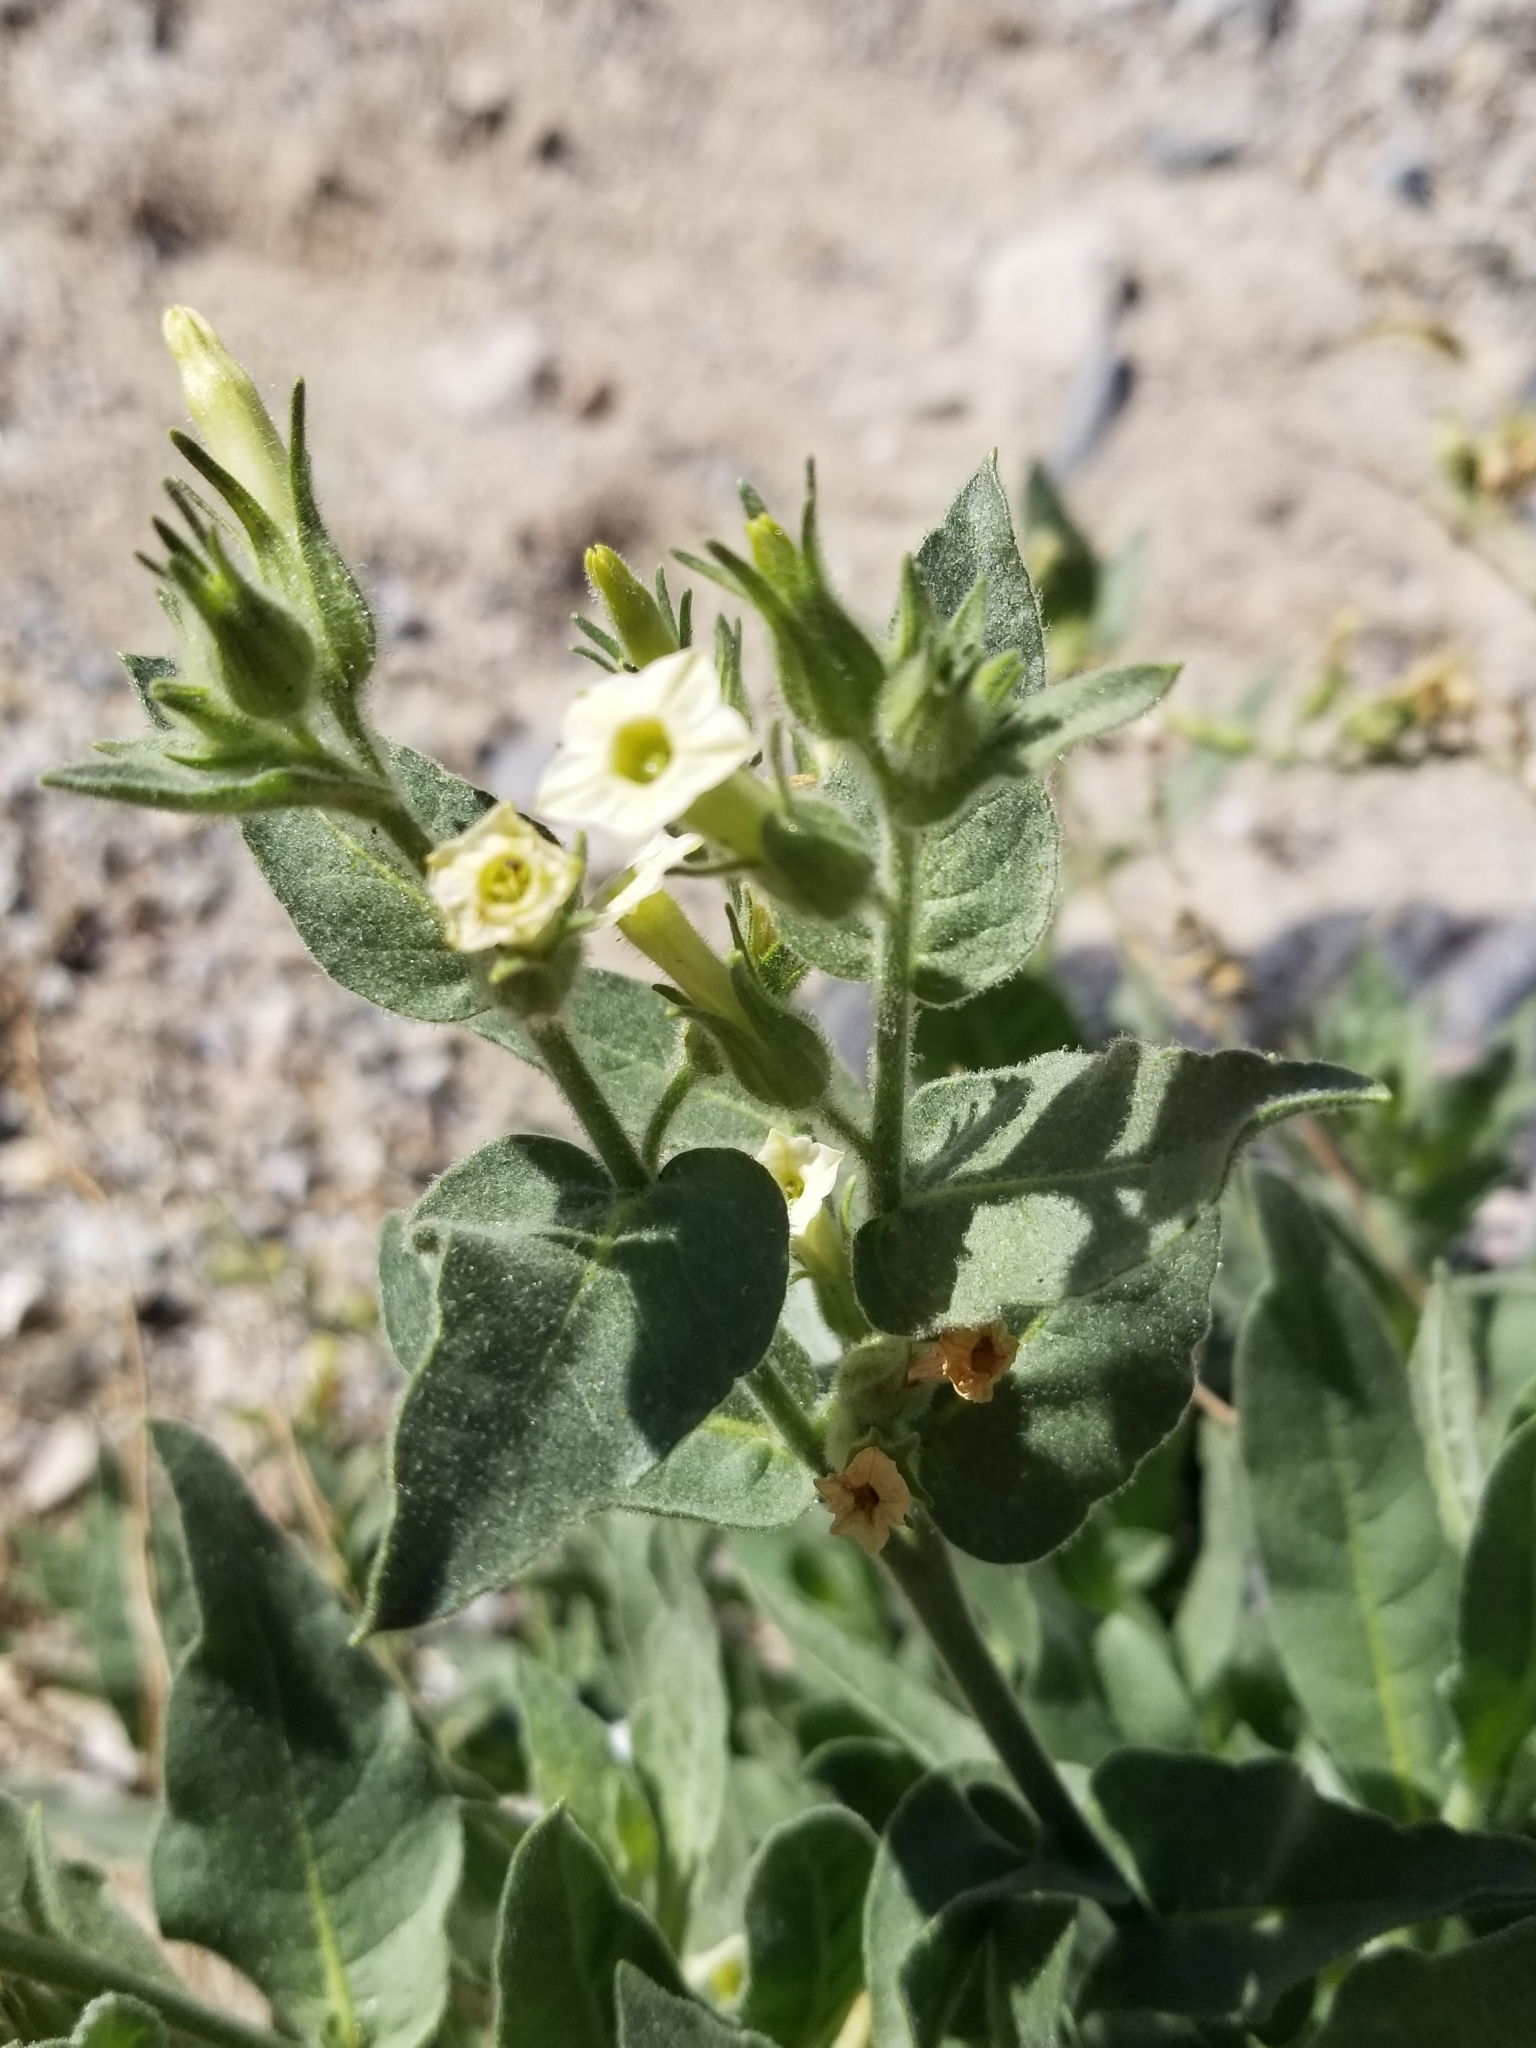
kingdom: Plantae
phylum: Tracheophyta
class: Magnoliopsida
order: Solanales
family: Solanaceae
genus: Nicotiana
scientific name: Nicotiana obtusifolia
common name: Desert tobacco
